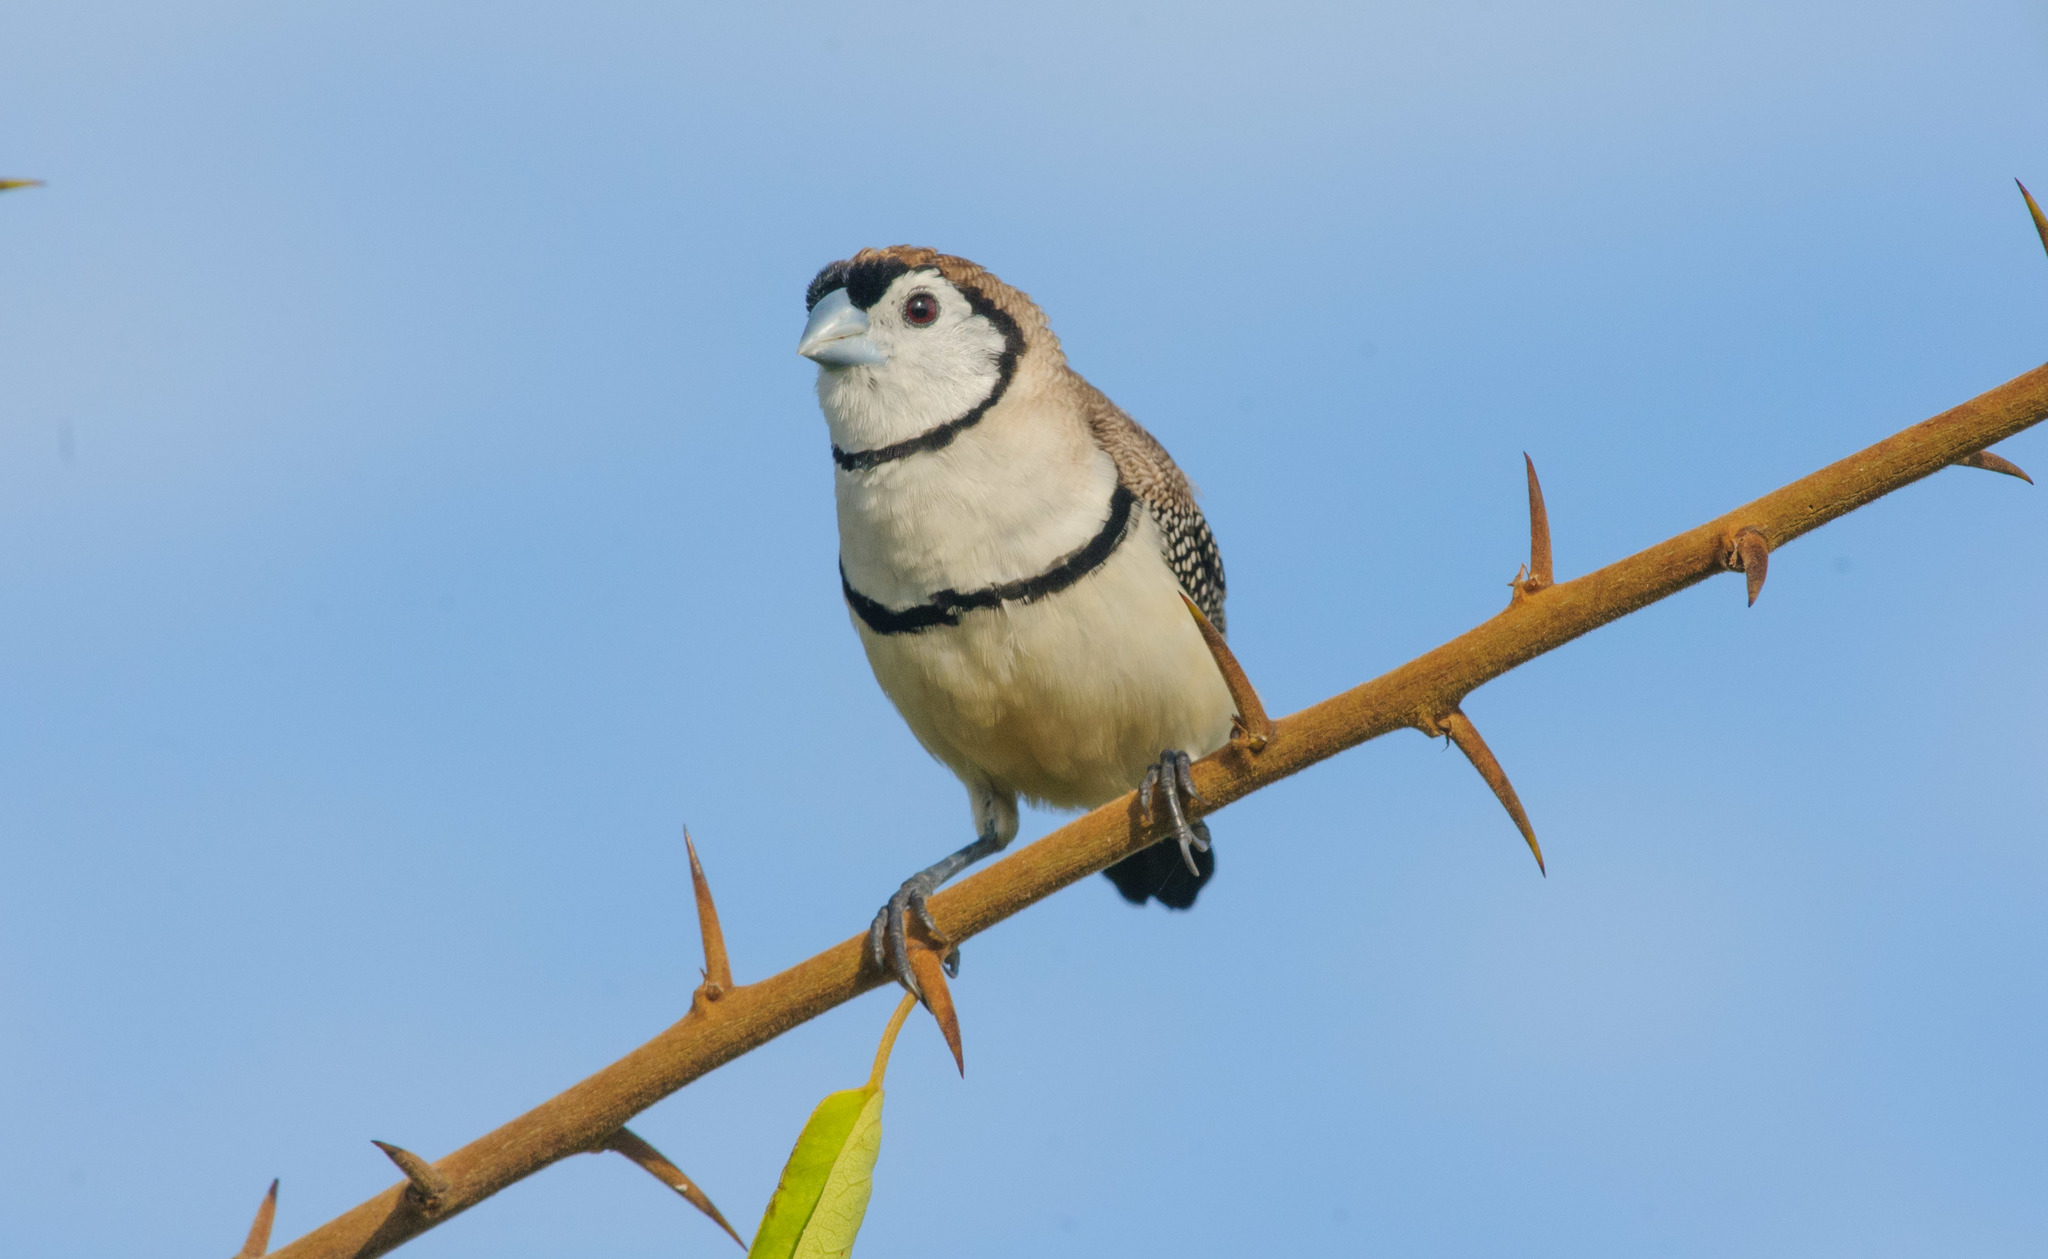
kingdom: Animalia
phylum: Chordata
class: Aves
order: Passeriformes
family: Estrildidae
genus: Taeniopygia
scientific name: Taeniopygia bichenovii
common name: Double-barred finch
